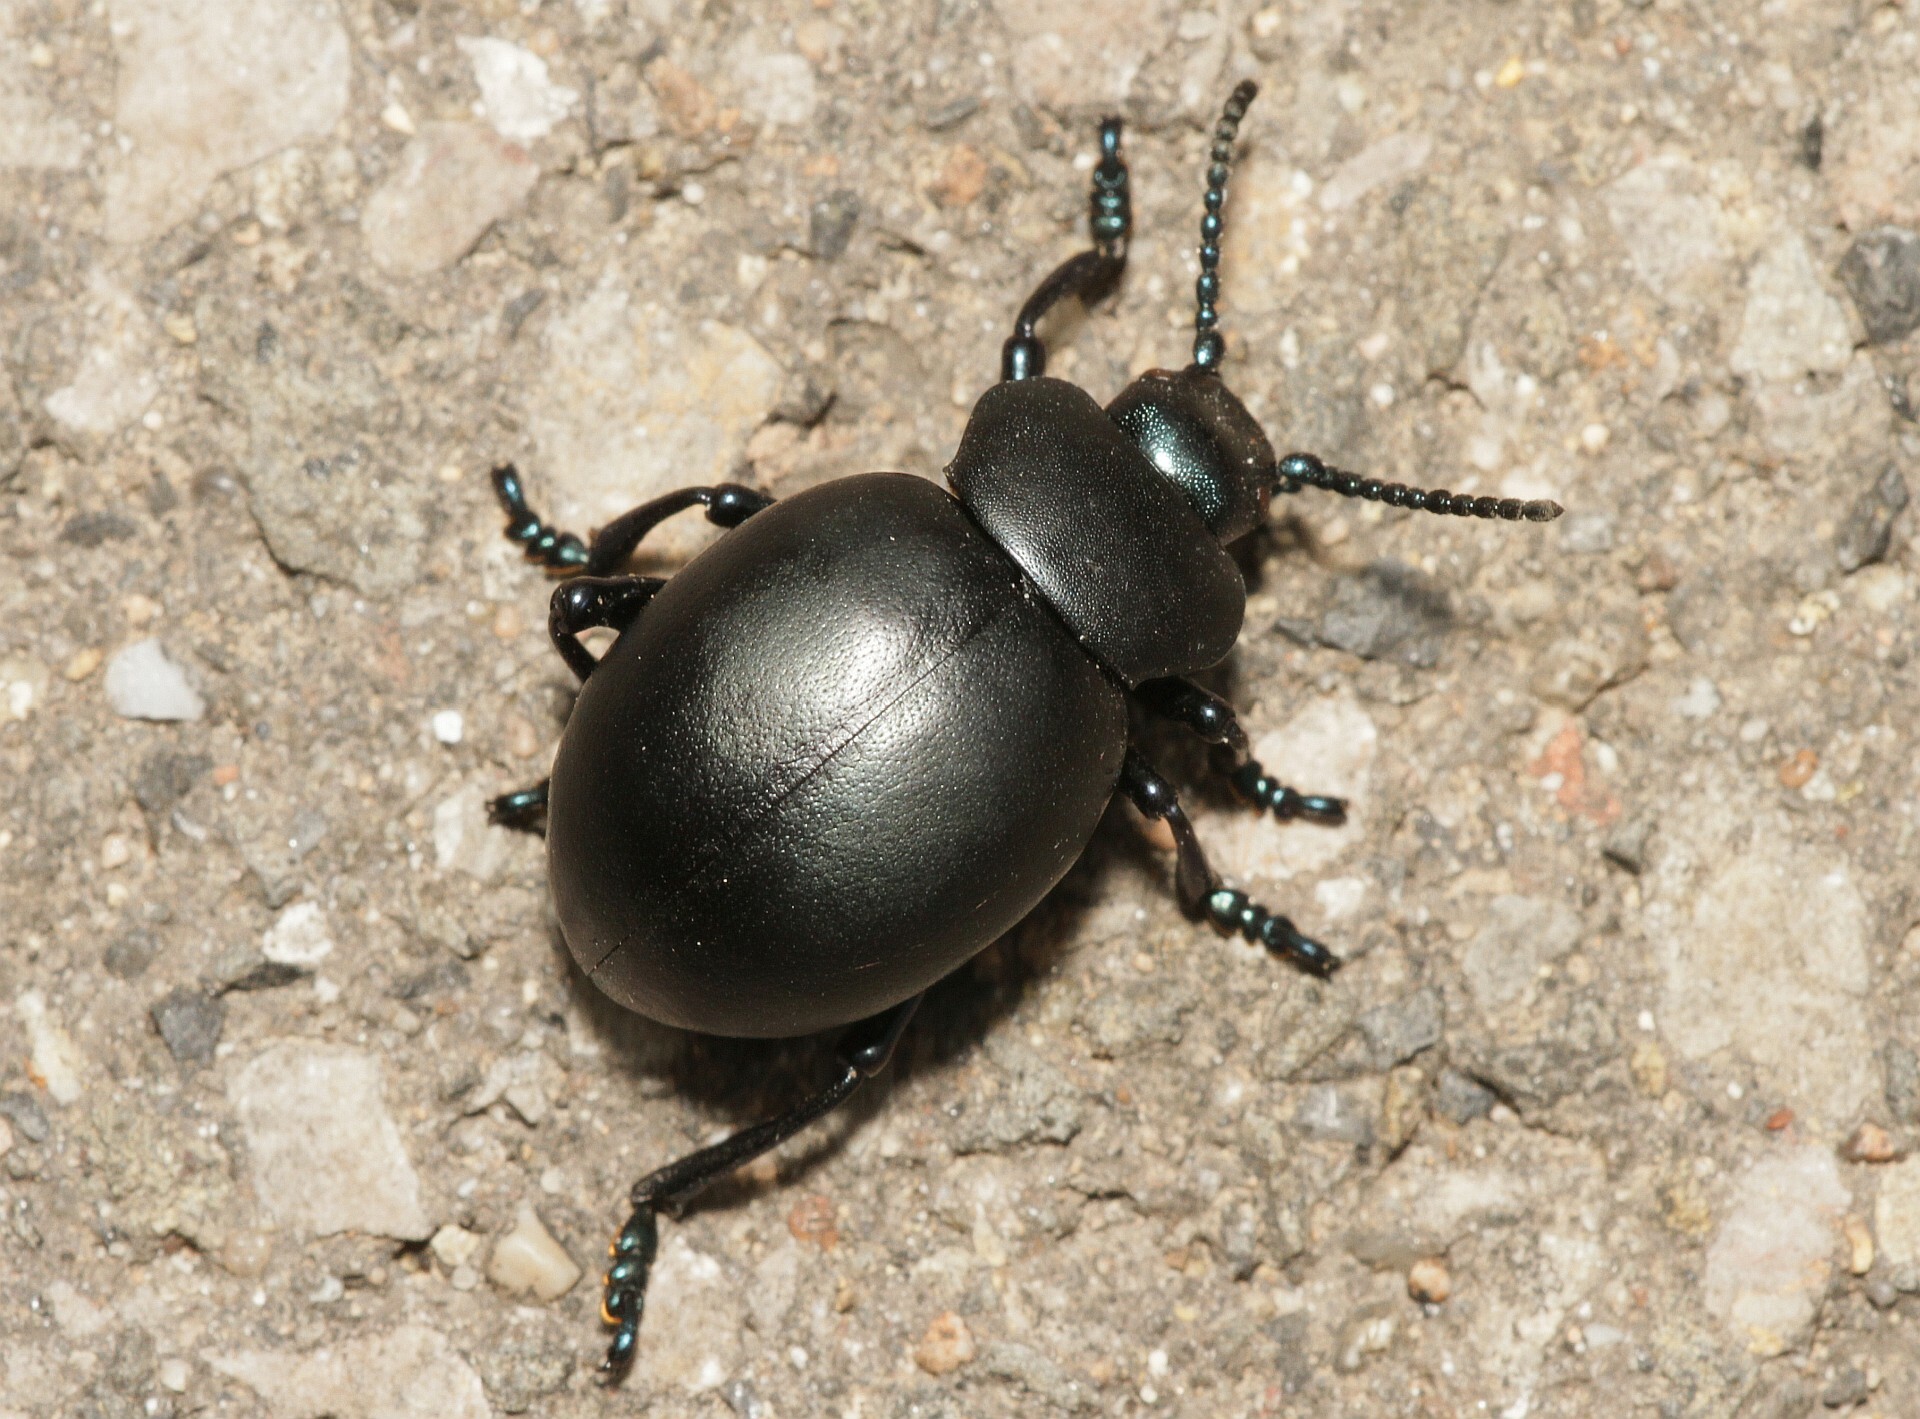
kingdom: Animalia
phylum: Arthropoda
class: Insecta
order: Coleoptera
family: Chrysomelidae
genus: Timarcha
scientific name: Timarcha tenebricosa
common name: Bloody-nosed beetle
